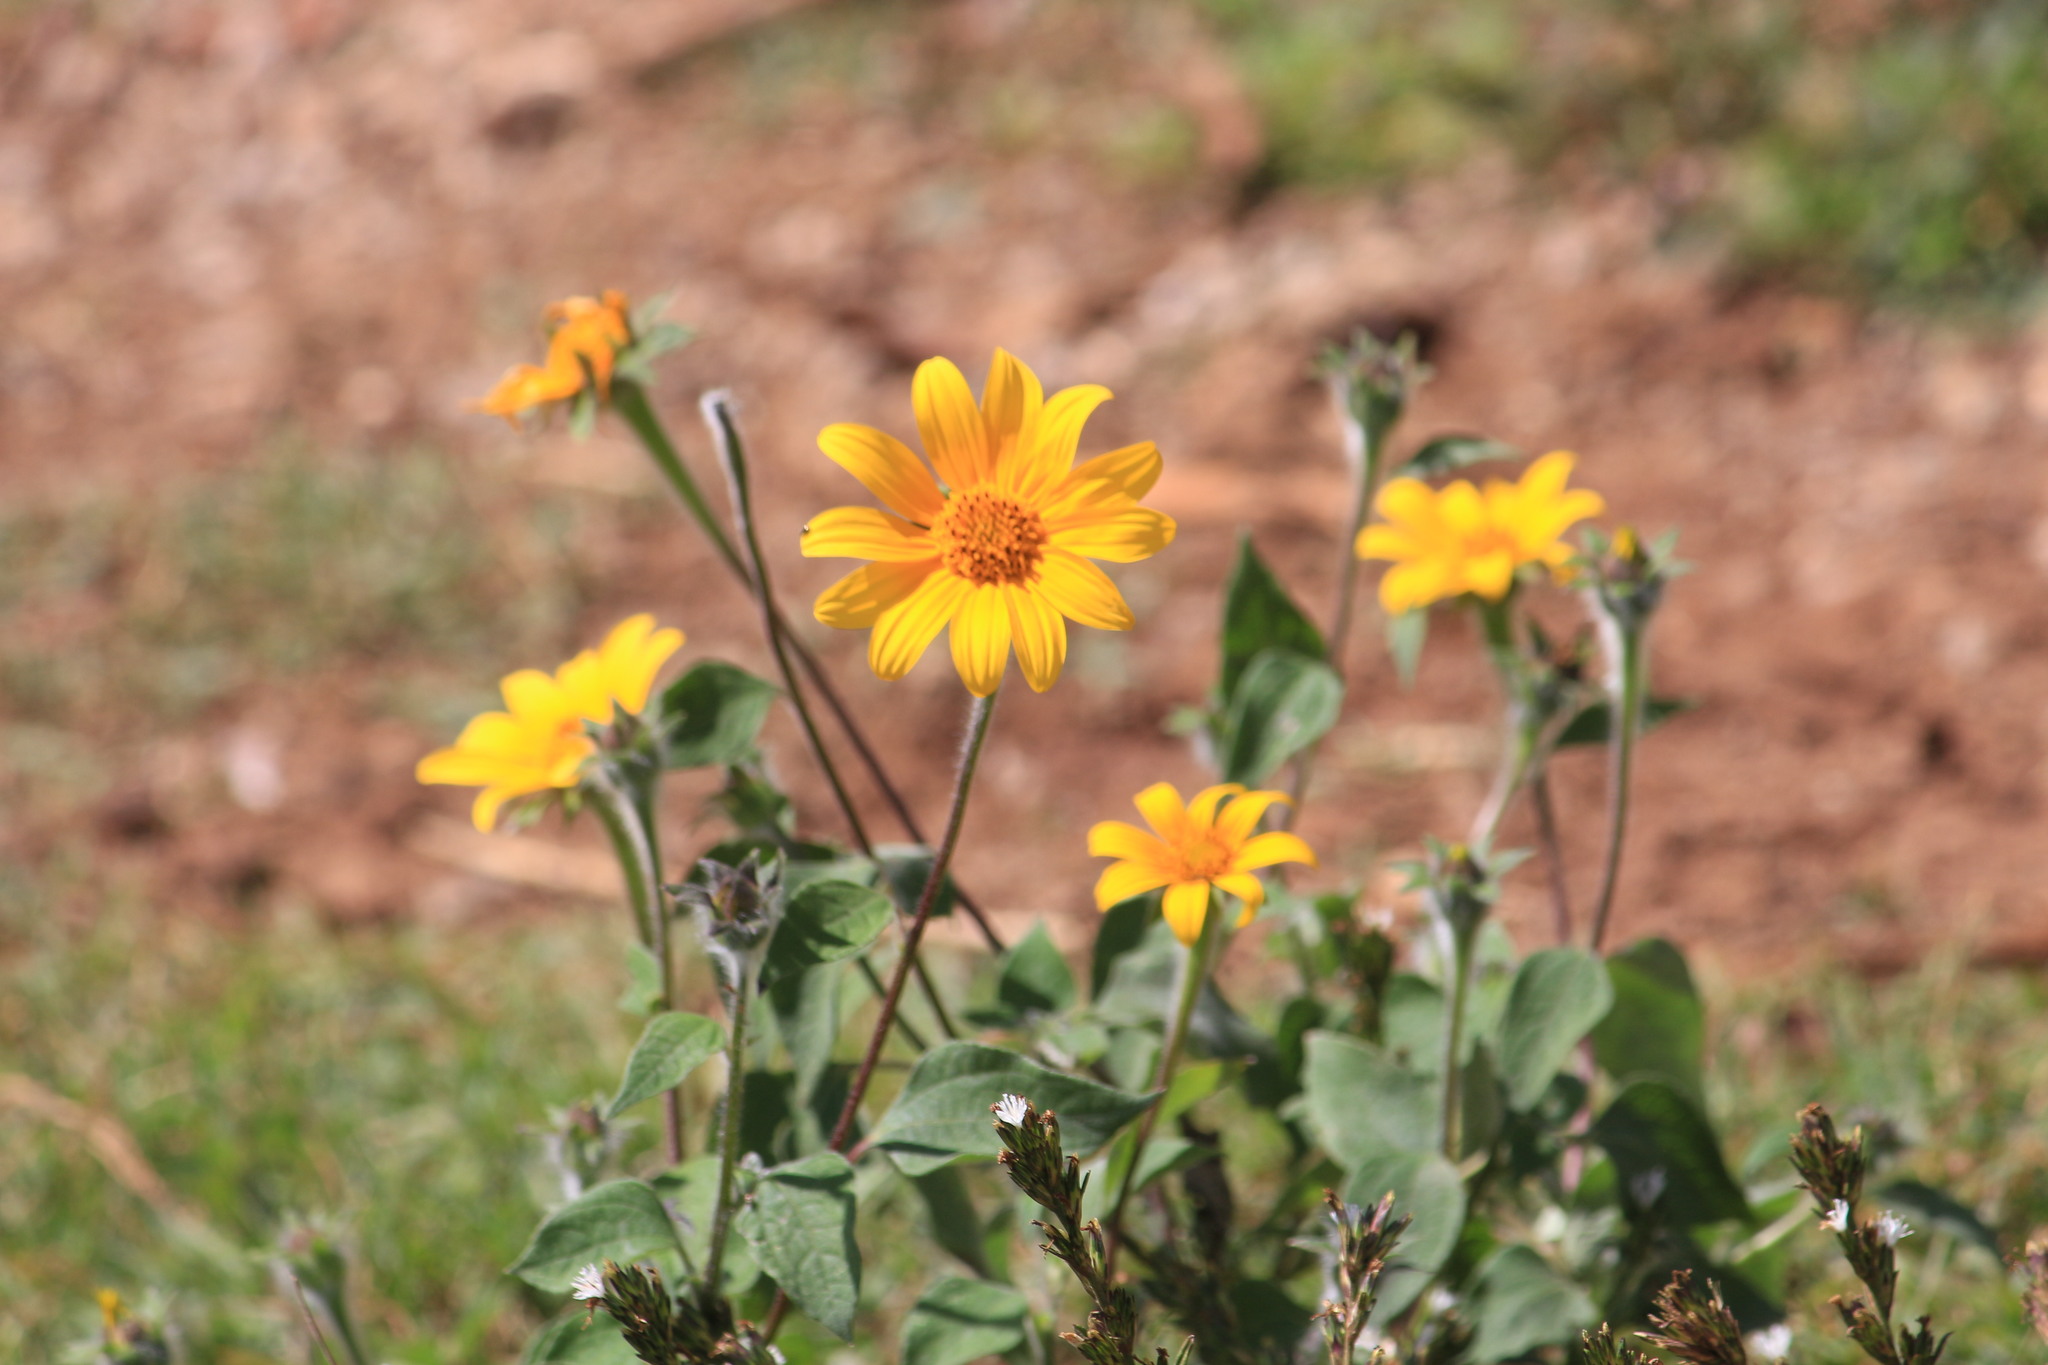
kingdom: Plantae
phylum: Tracheophyta
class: Magnoliopsida
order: Asterales
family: Asteraceae
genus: Tithonia
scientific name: Tithonia tubaeformis
